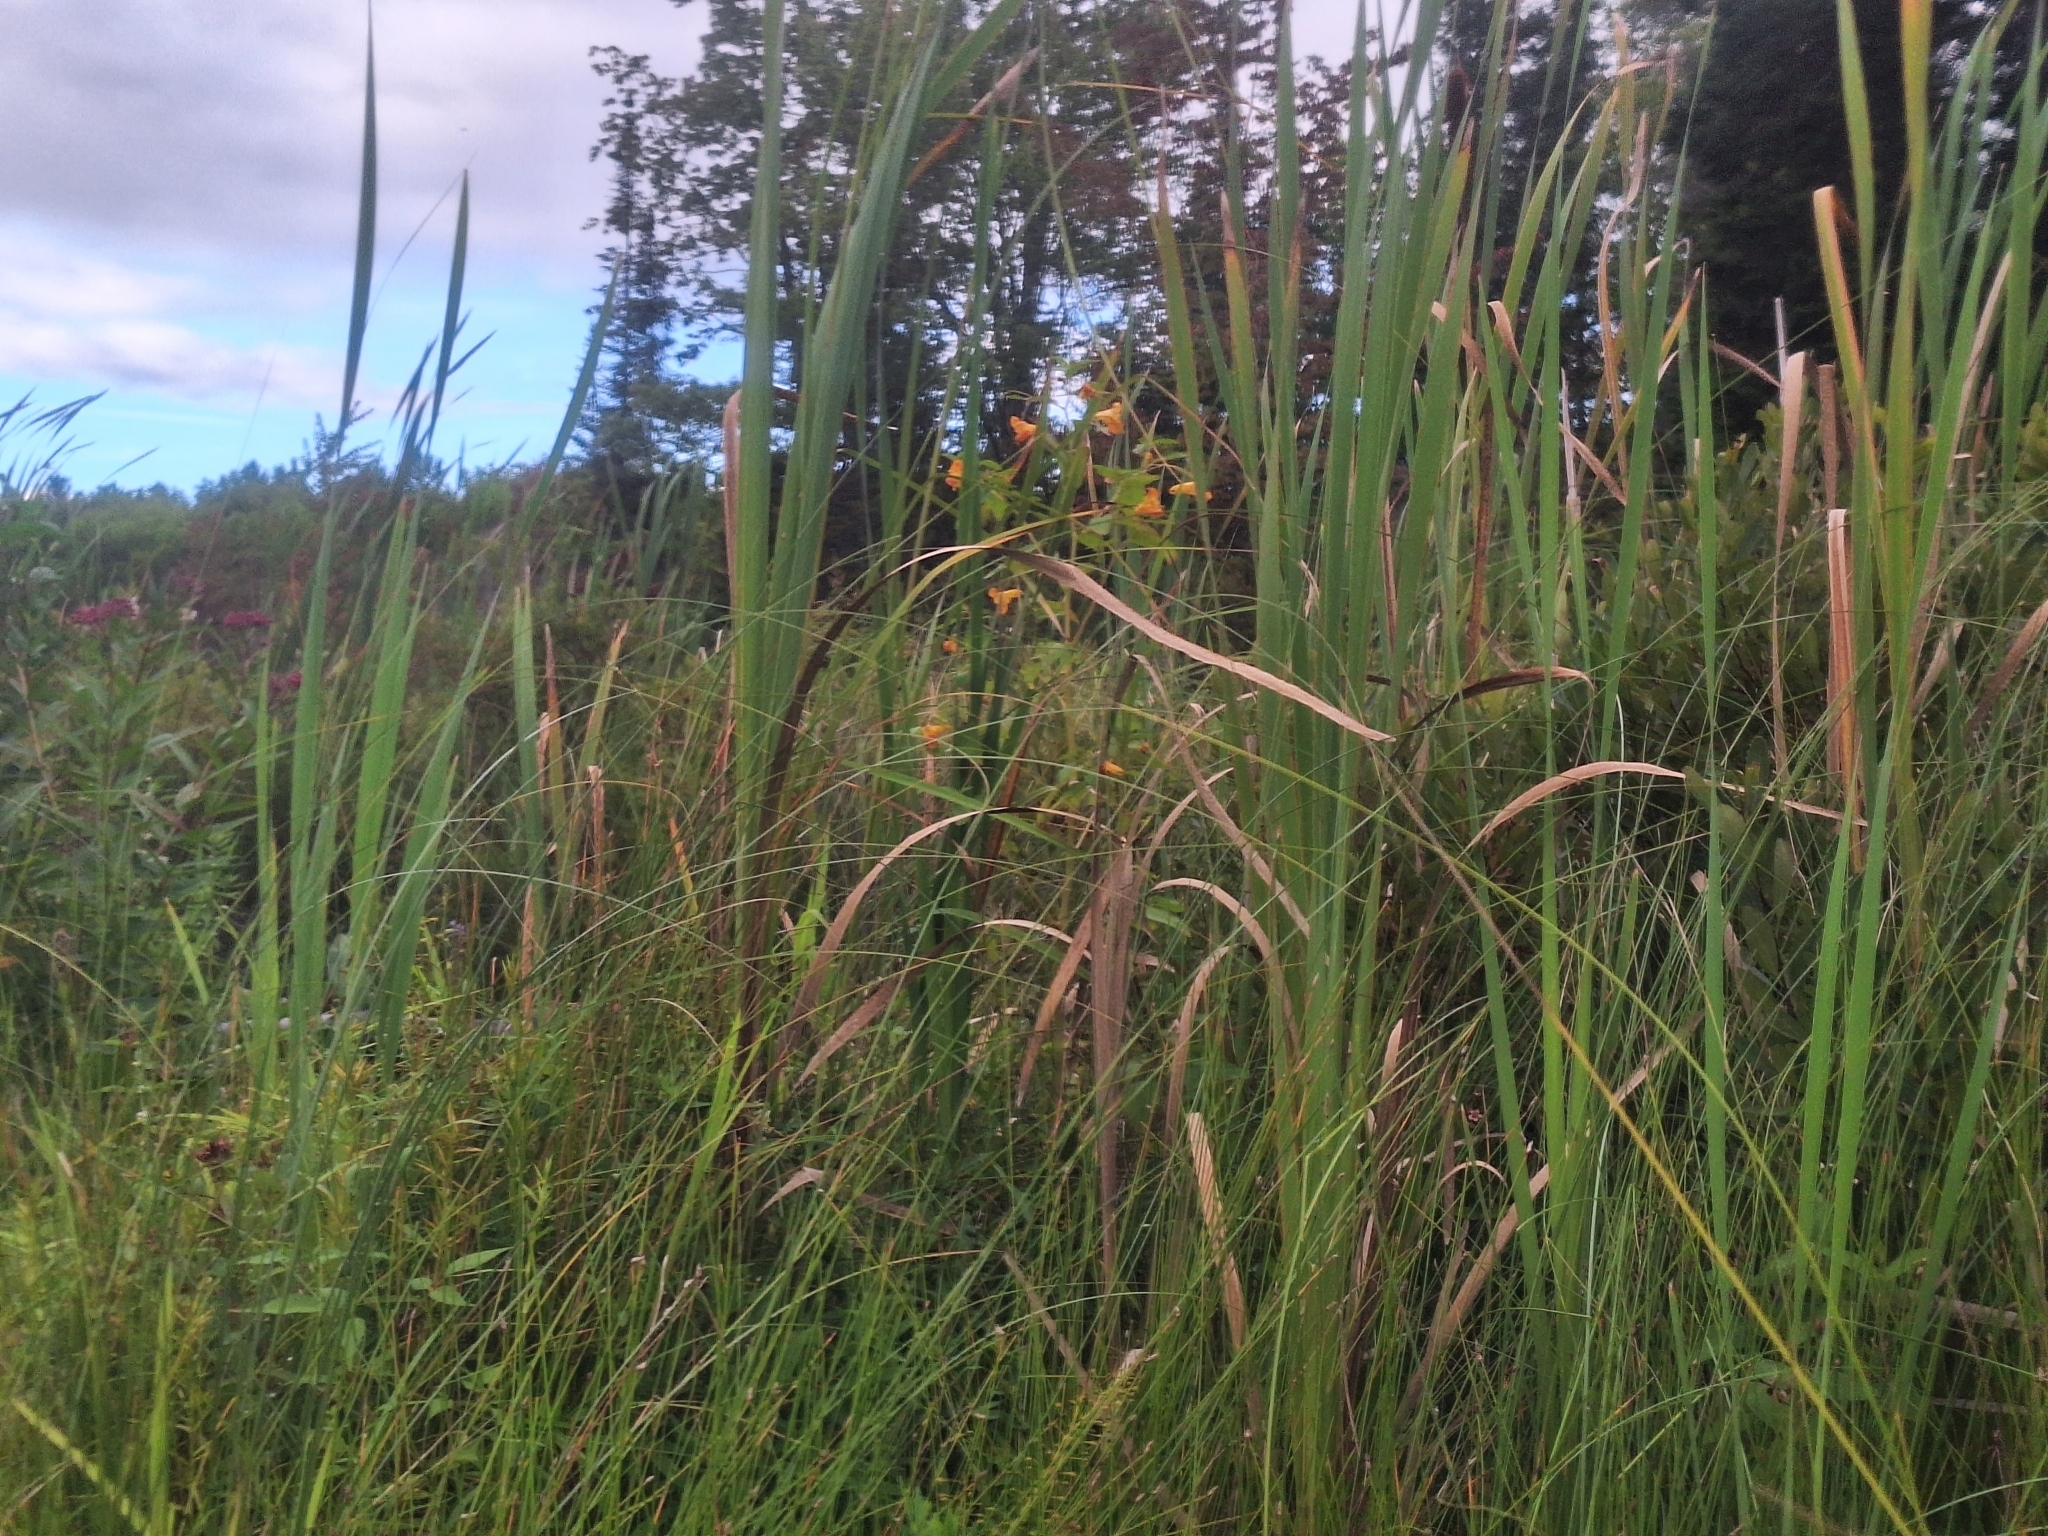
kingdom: Plantae
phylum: Tracheophyta
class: Magnoliopsida
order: Ericales
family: Balsaminaceae
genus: Impatiens
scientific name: Impatiens capensis
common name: Orange balsam
